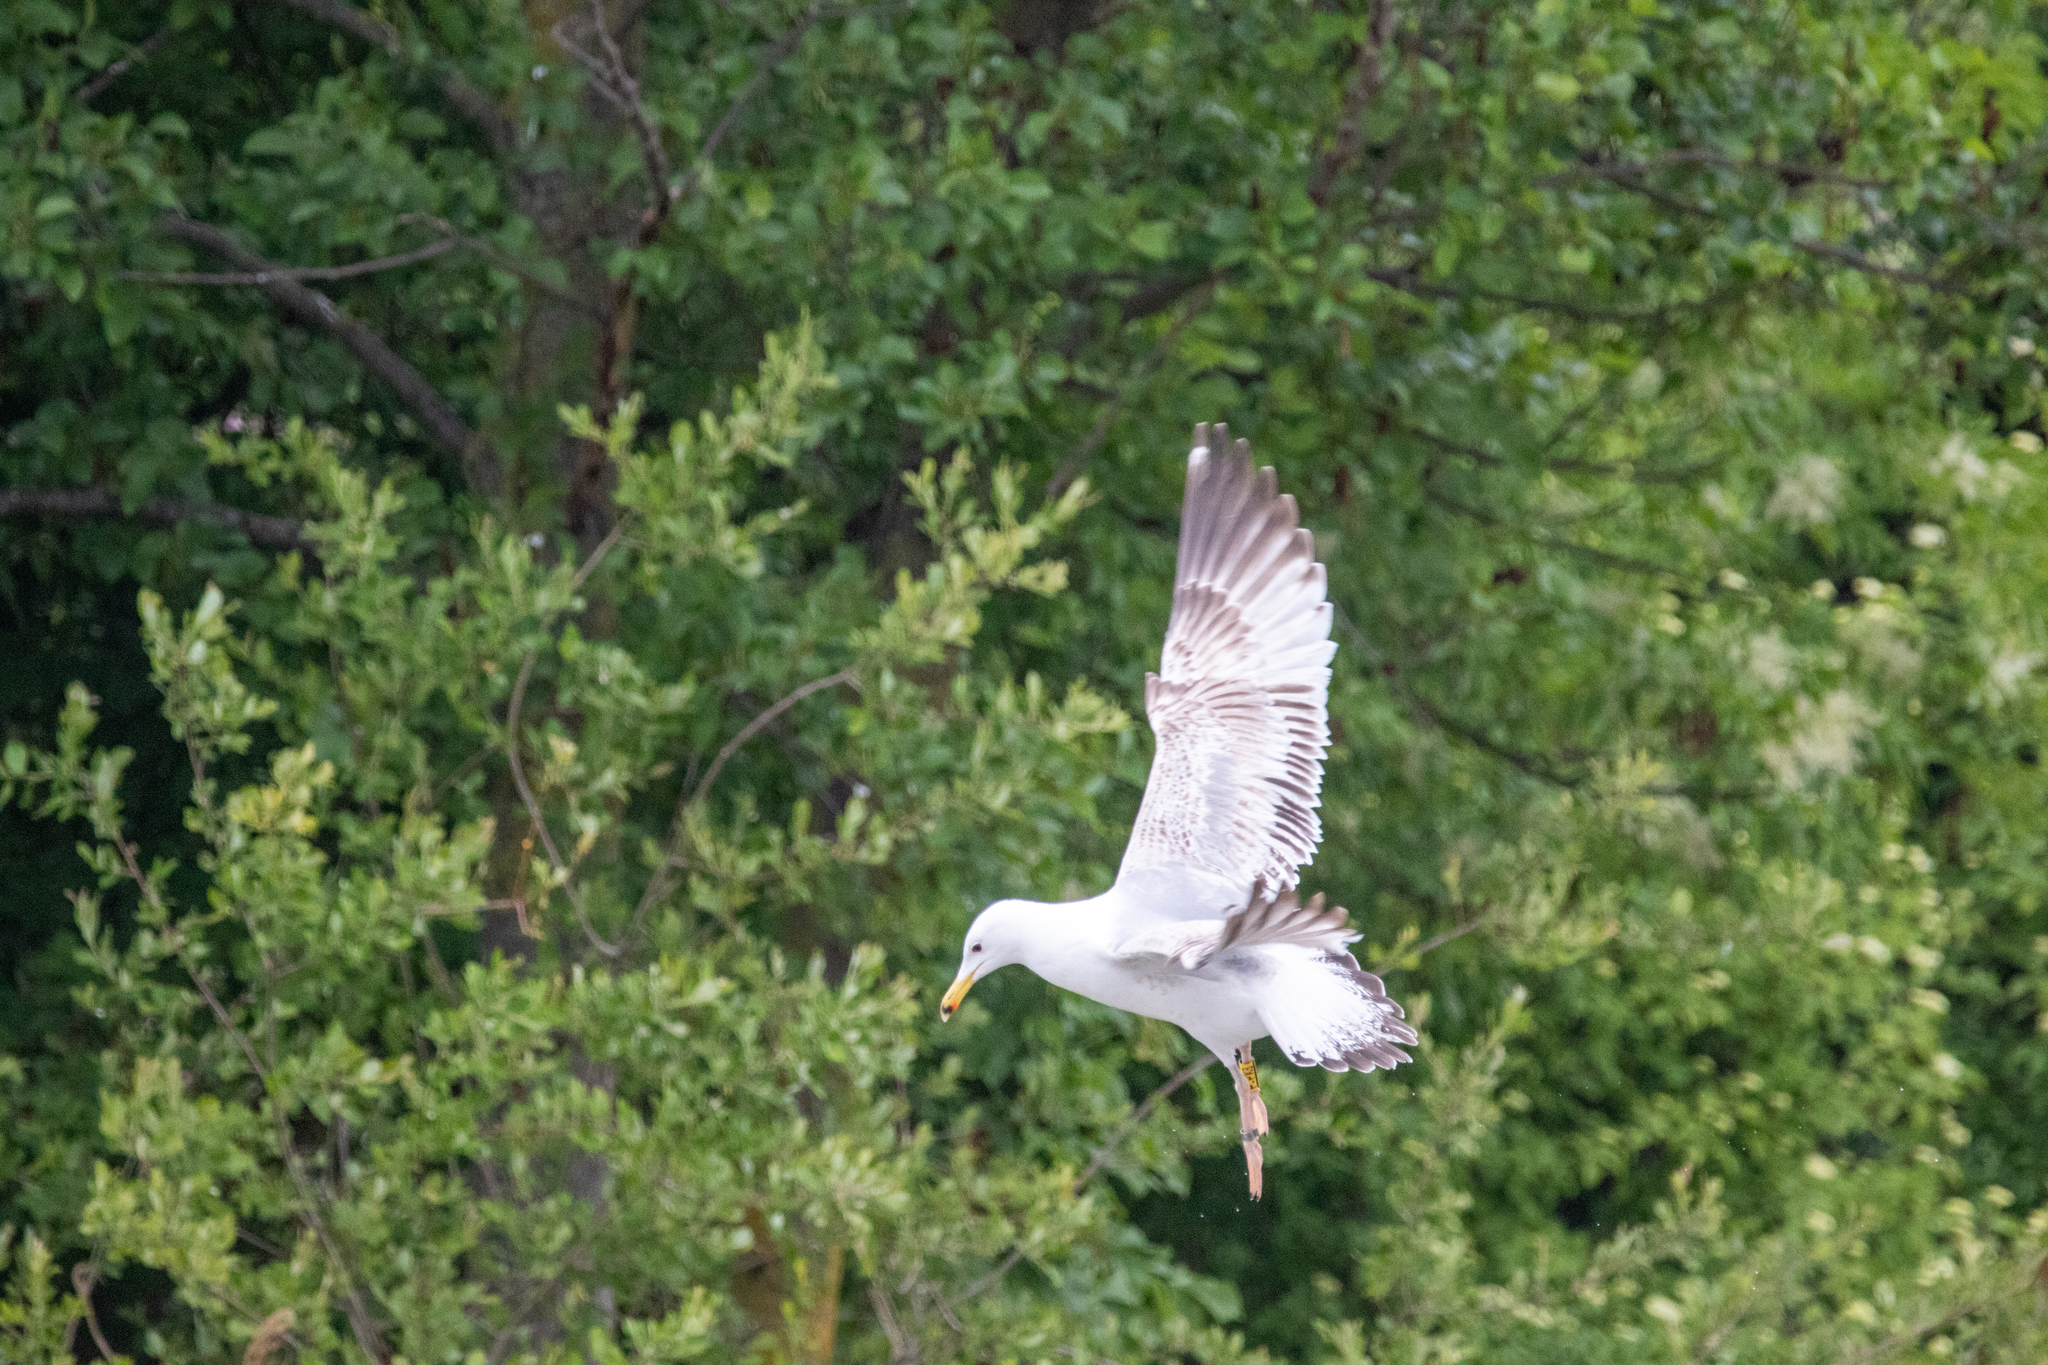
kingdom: Animalia
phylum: Chordata
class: Aves
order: Charadriiformes
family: Laridae
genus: Larus
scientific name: Larus cachinnans
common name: Caspian gull
